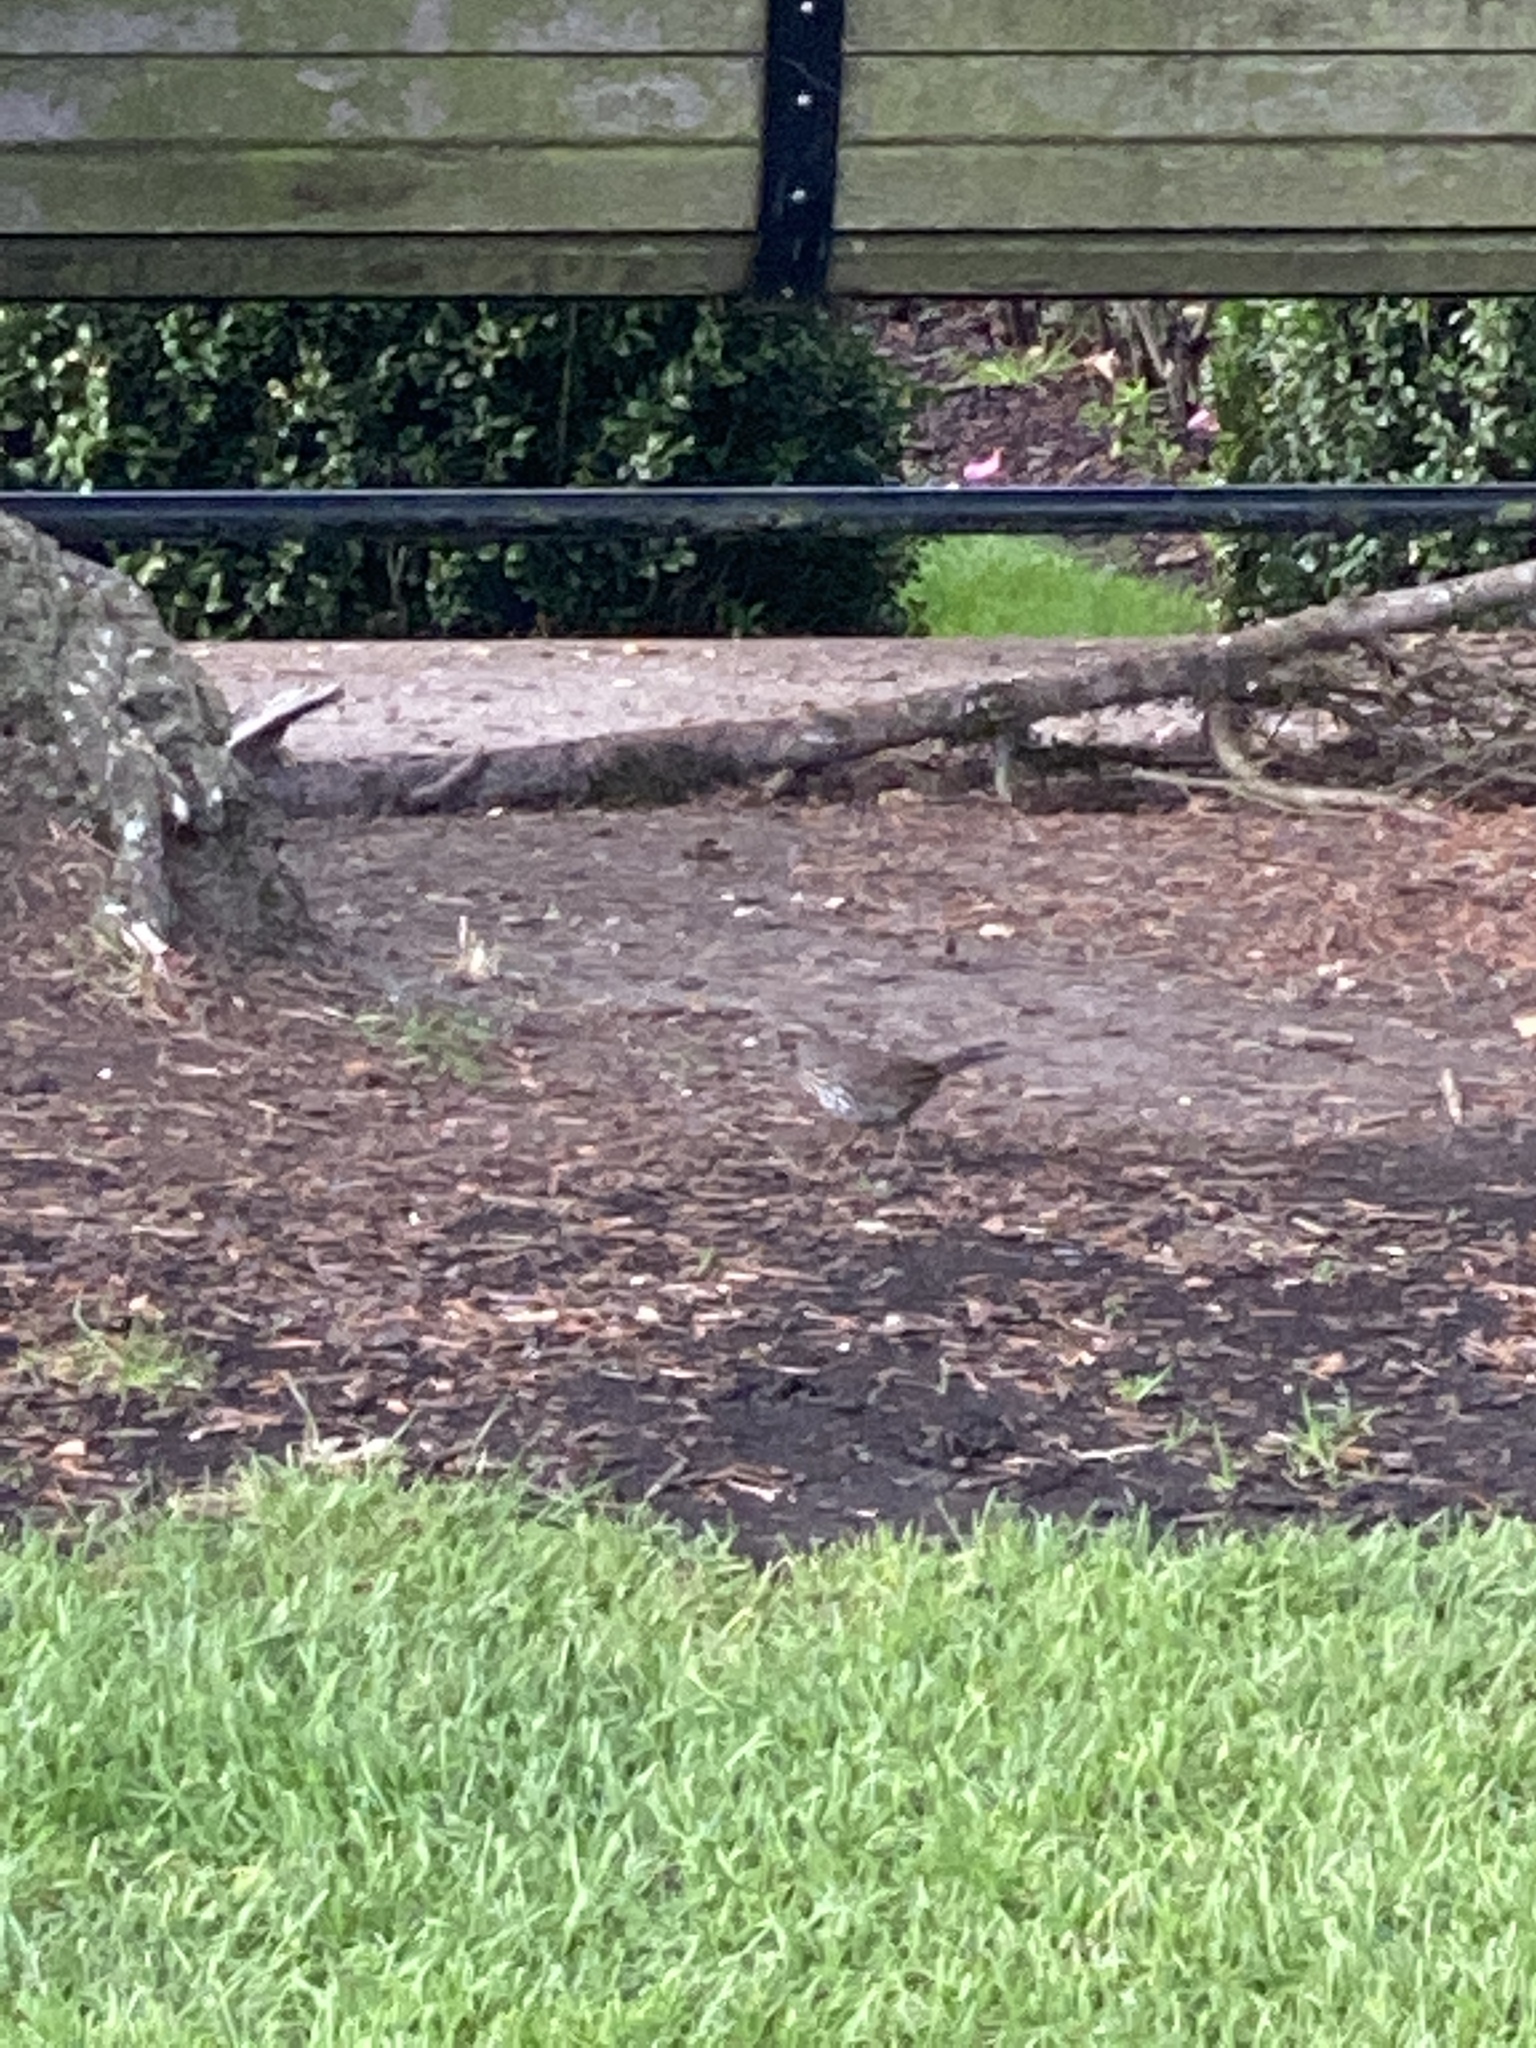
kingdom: Animalia
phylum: Chordata
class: Aves
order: Passeriformes
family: Passerellidae
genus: Melospiza
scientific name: Melospiza melodia
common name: Song sparrow
